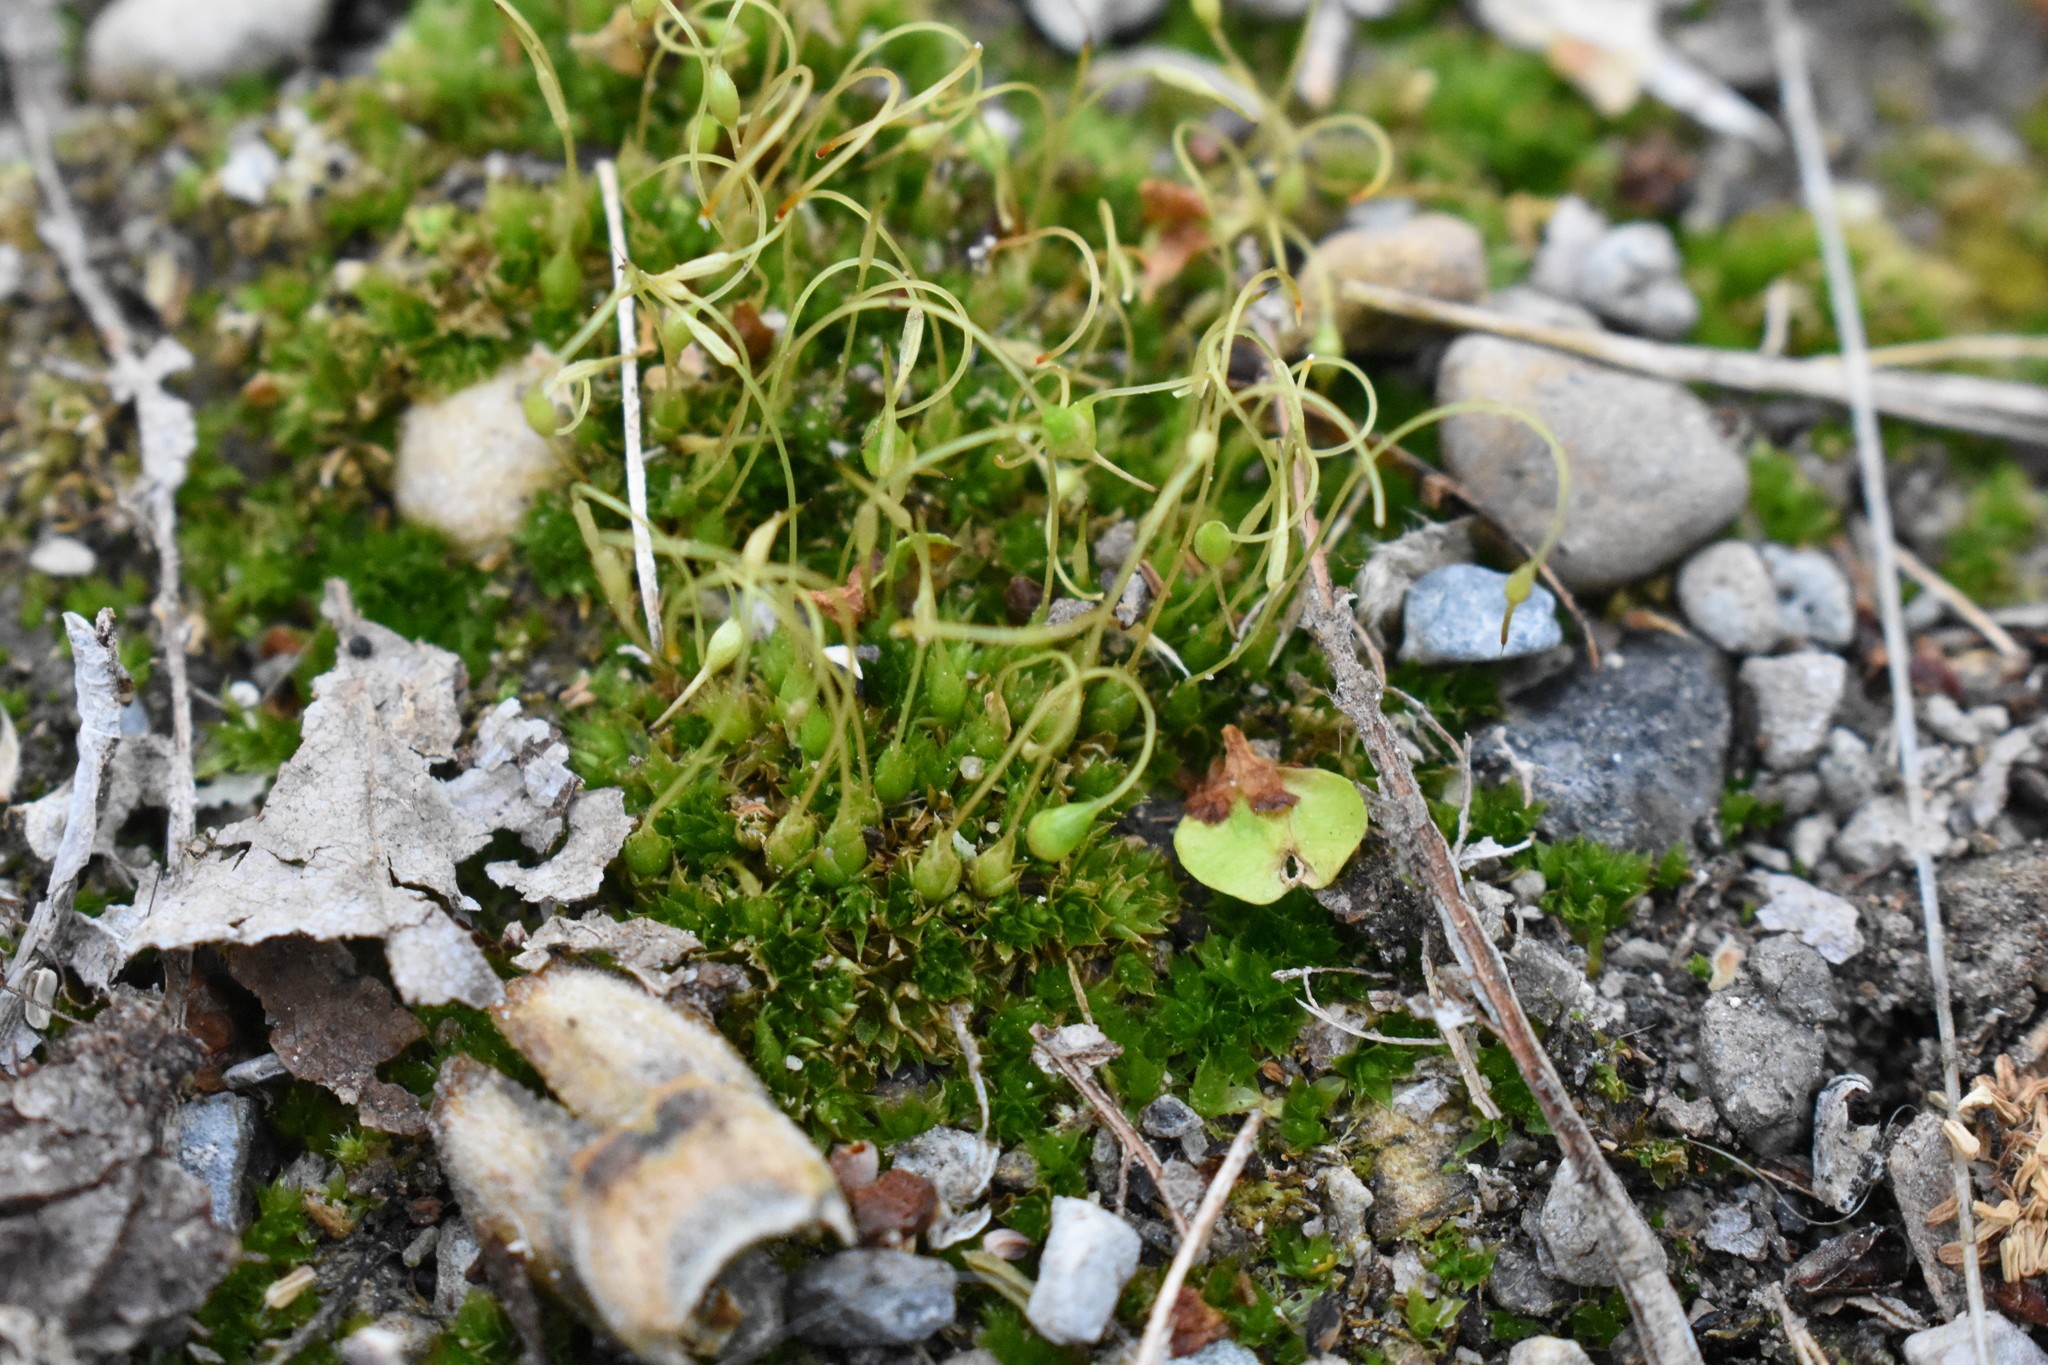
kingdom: Plantae
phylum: Bryophyta
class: Bryopsida
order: Funariales
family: Funariaceae
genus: Funaria
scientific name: Funaria hygrometrica
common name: Common cord moss
